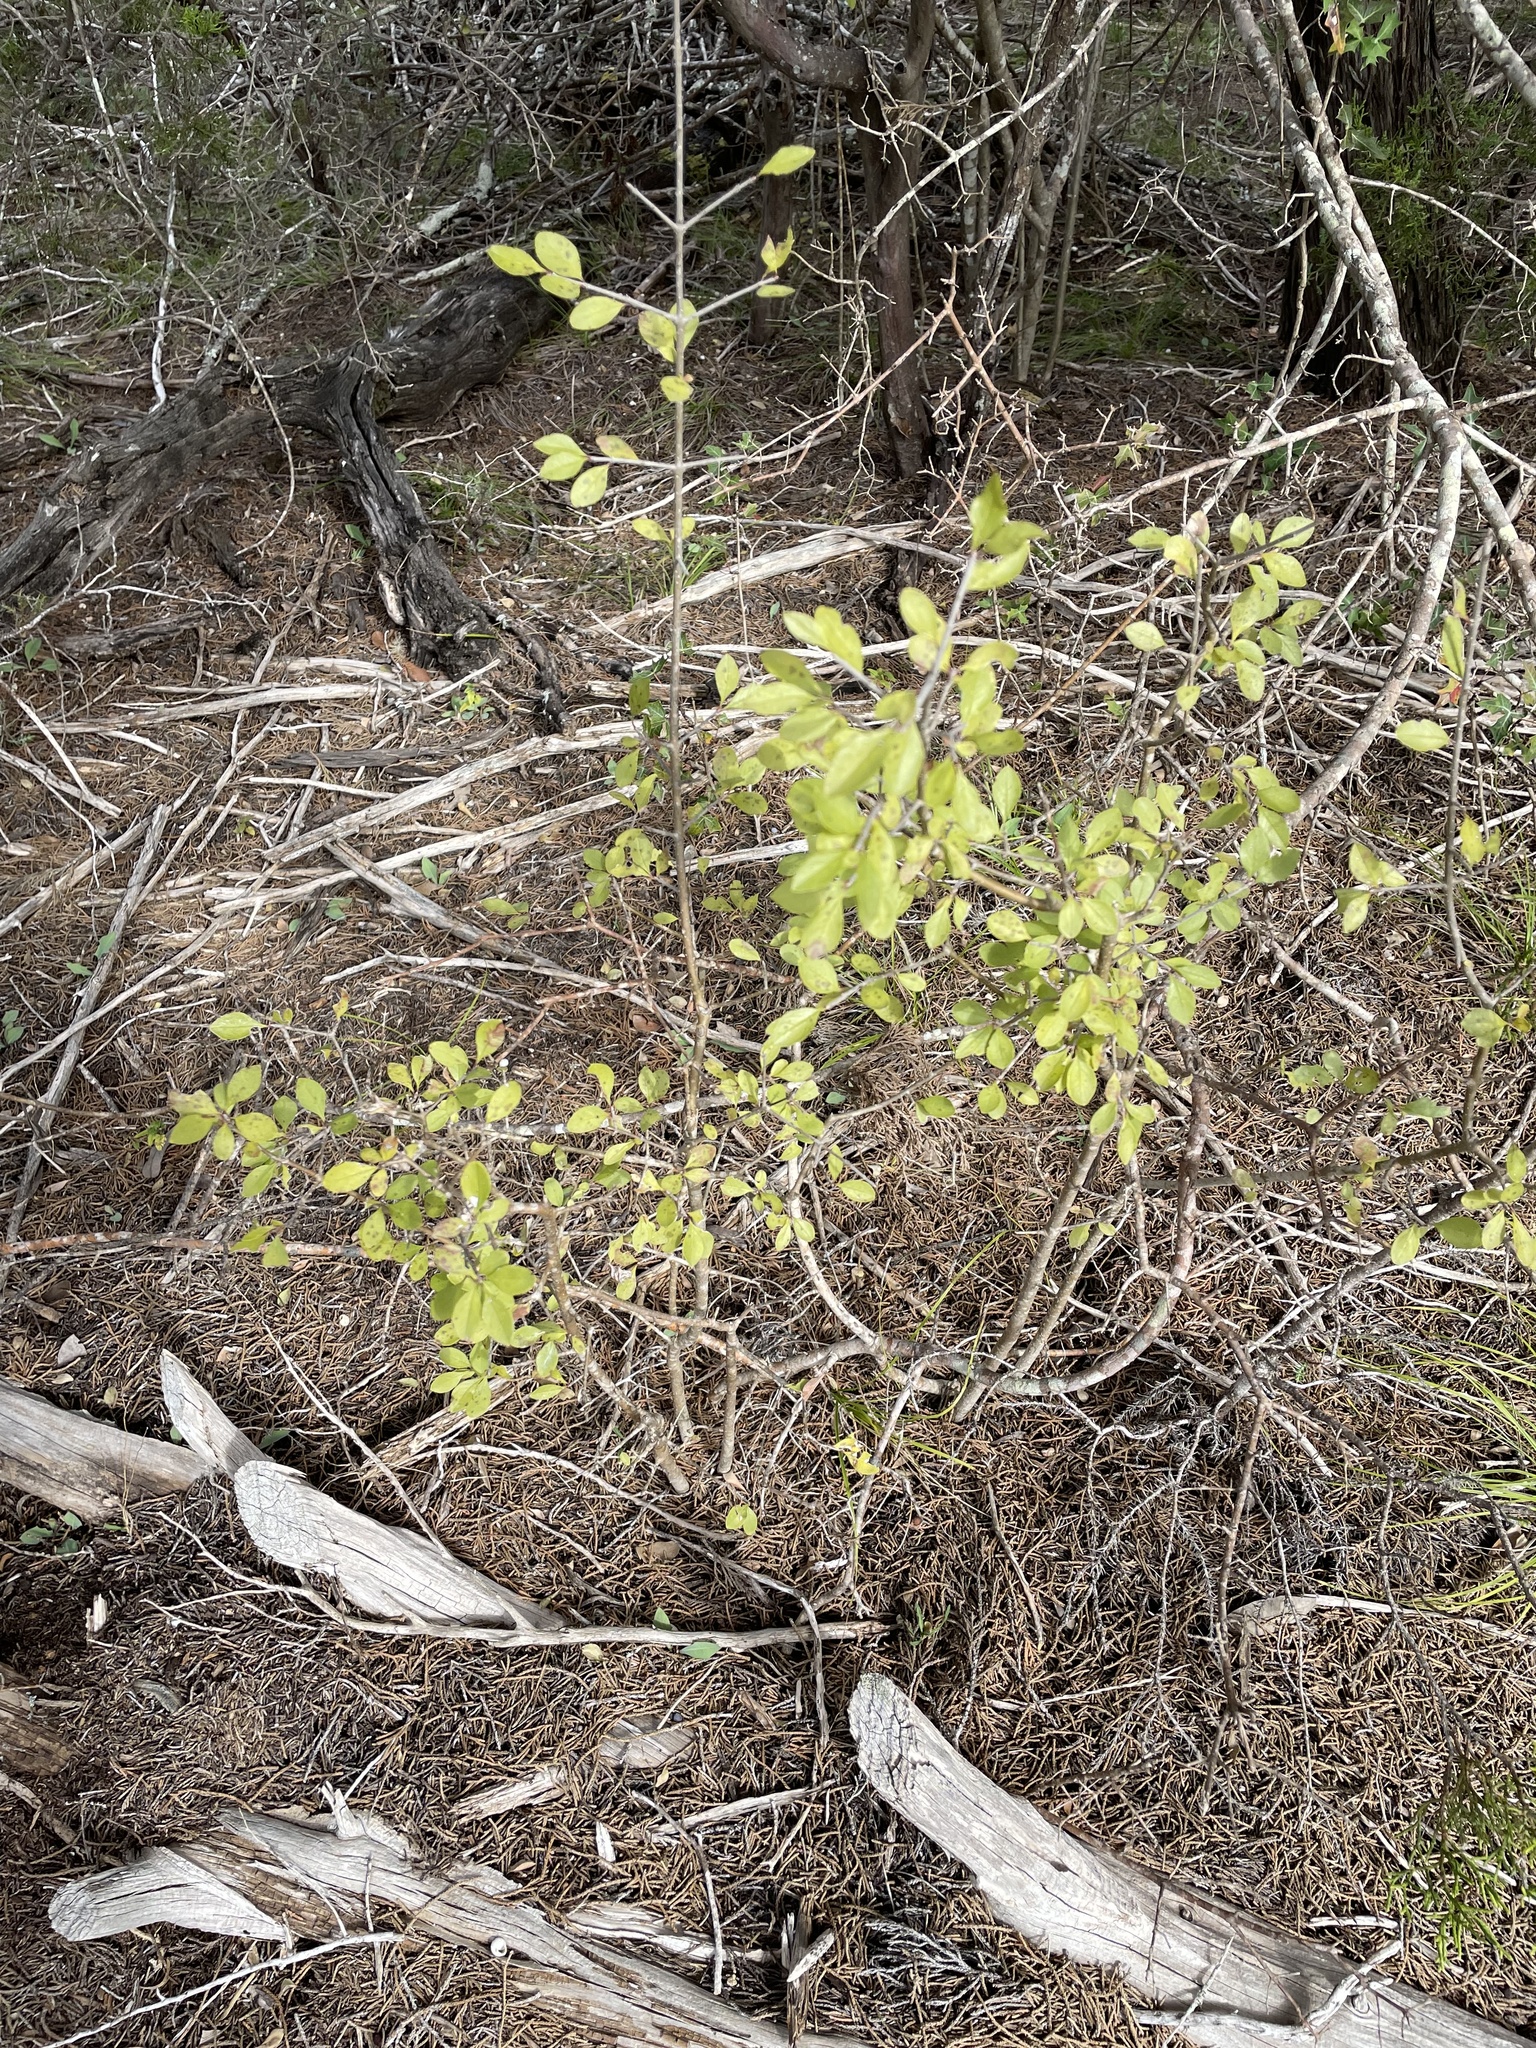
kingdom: Plantae
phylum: Tracheophyta
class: Magnoliopsida
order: Lamiales
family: Oleaceae
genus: Forestiera
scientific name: Forestiera pubescens
